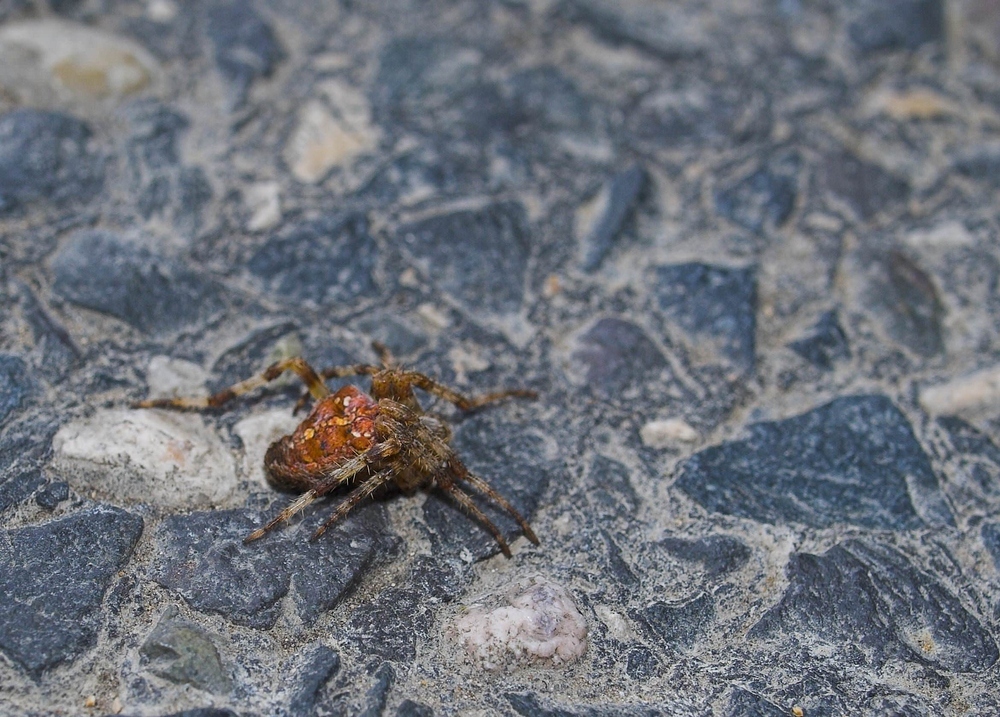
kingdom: Animalia
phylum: Arthropoda
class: Arachnida
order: Araneae
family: Araneidae
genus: Araneus
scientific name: Araneus diadematus
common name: Cross orbweaver
